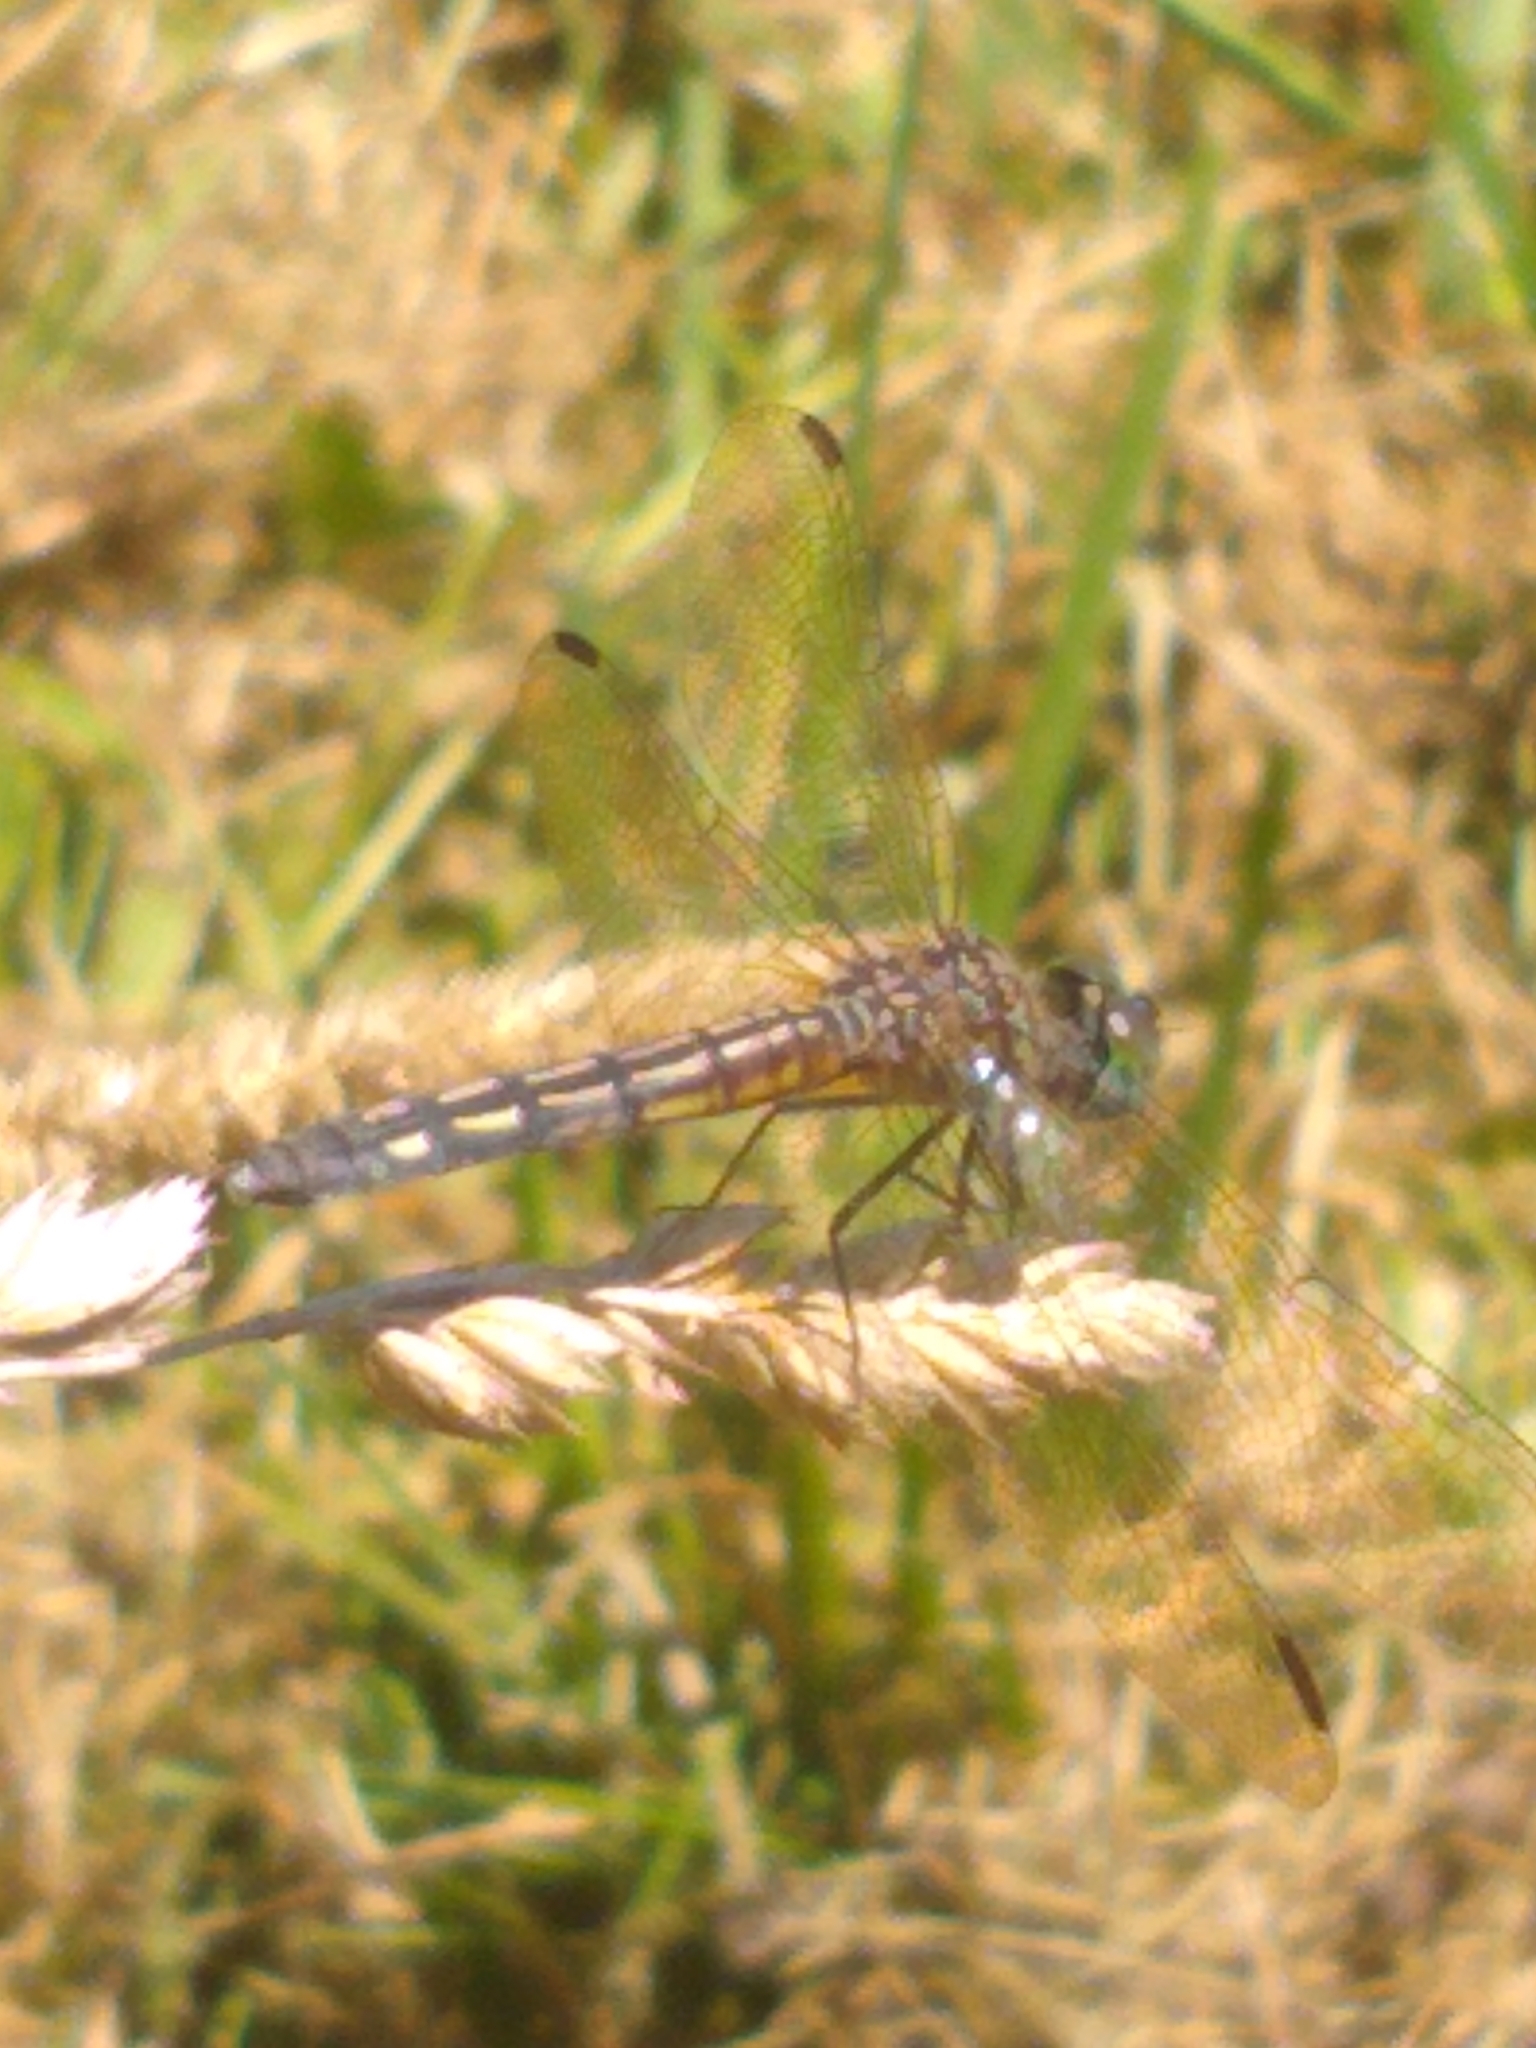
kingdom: Animalia
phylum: Arthropoda
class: Insecta
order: Odonata
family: Libellulidae
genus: Pachydiplax
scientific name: Pachydiplax longipennis
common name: Blue dasher
